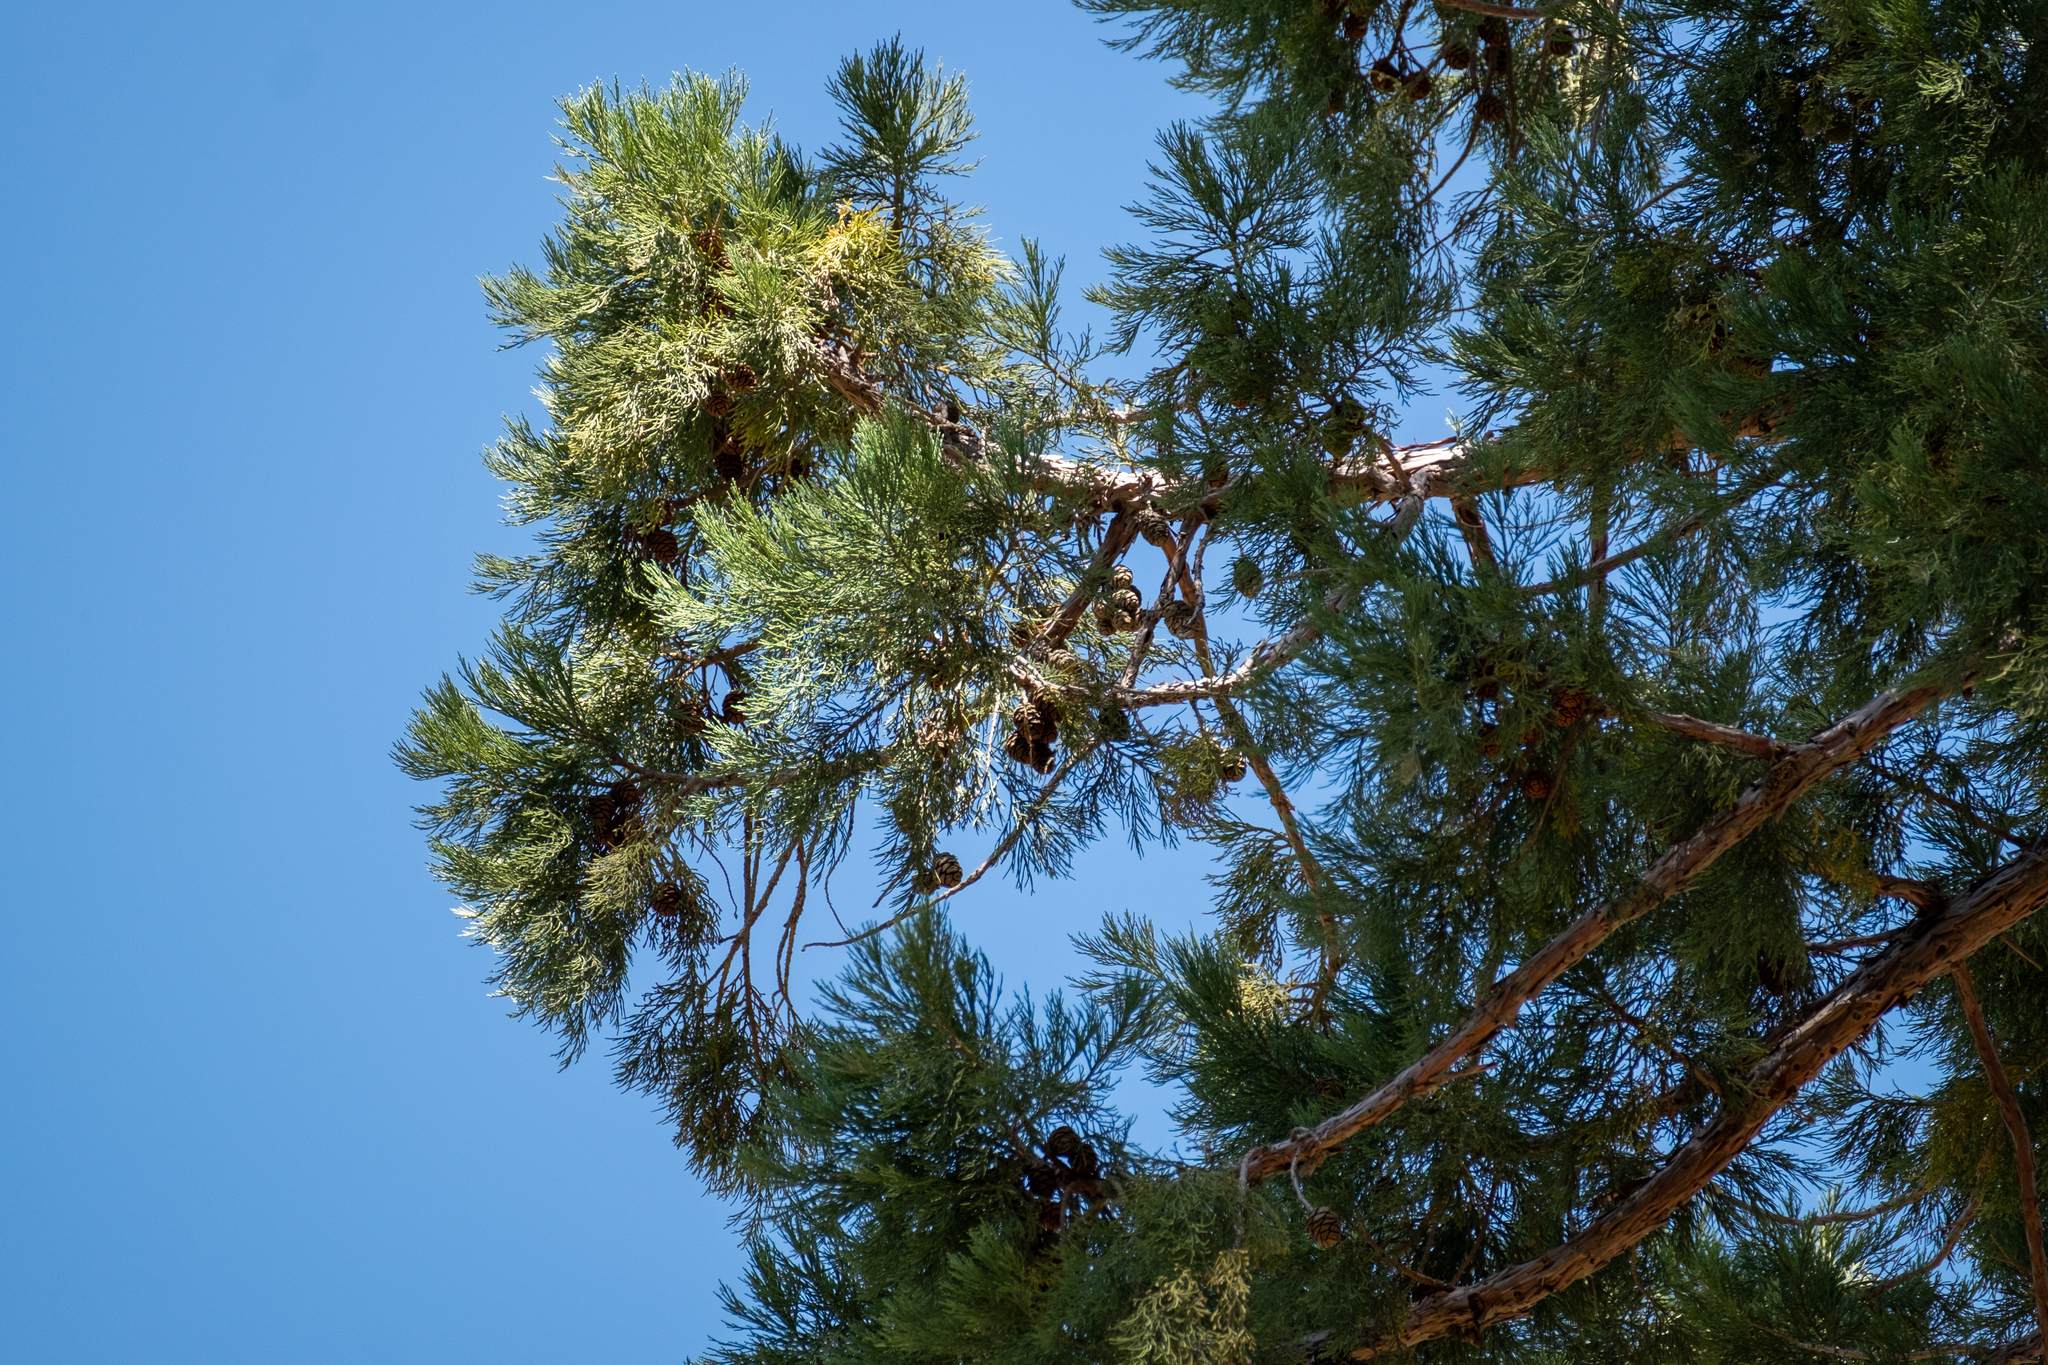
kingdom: Plantae
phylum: Tracheophyta
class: Pinopsida
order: Pinales
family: Cupressaceae
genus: Sequoiadendron
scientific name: Sequoiadendron giganteum
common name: Wellingtonia
